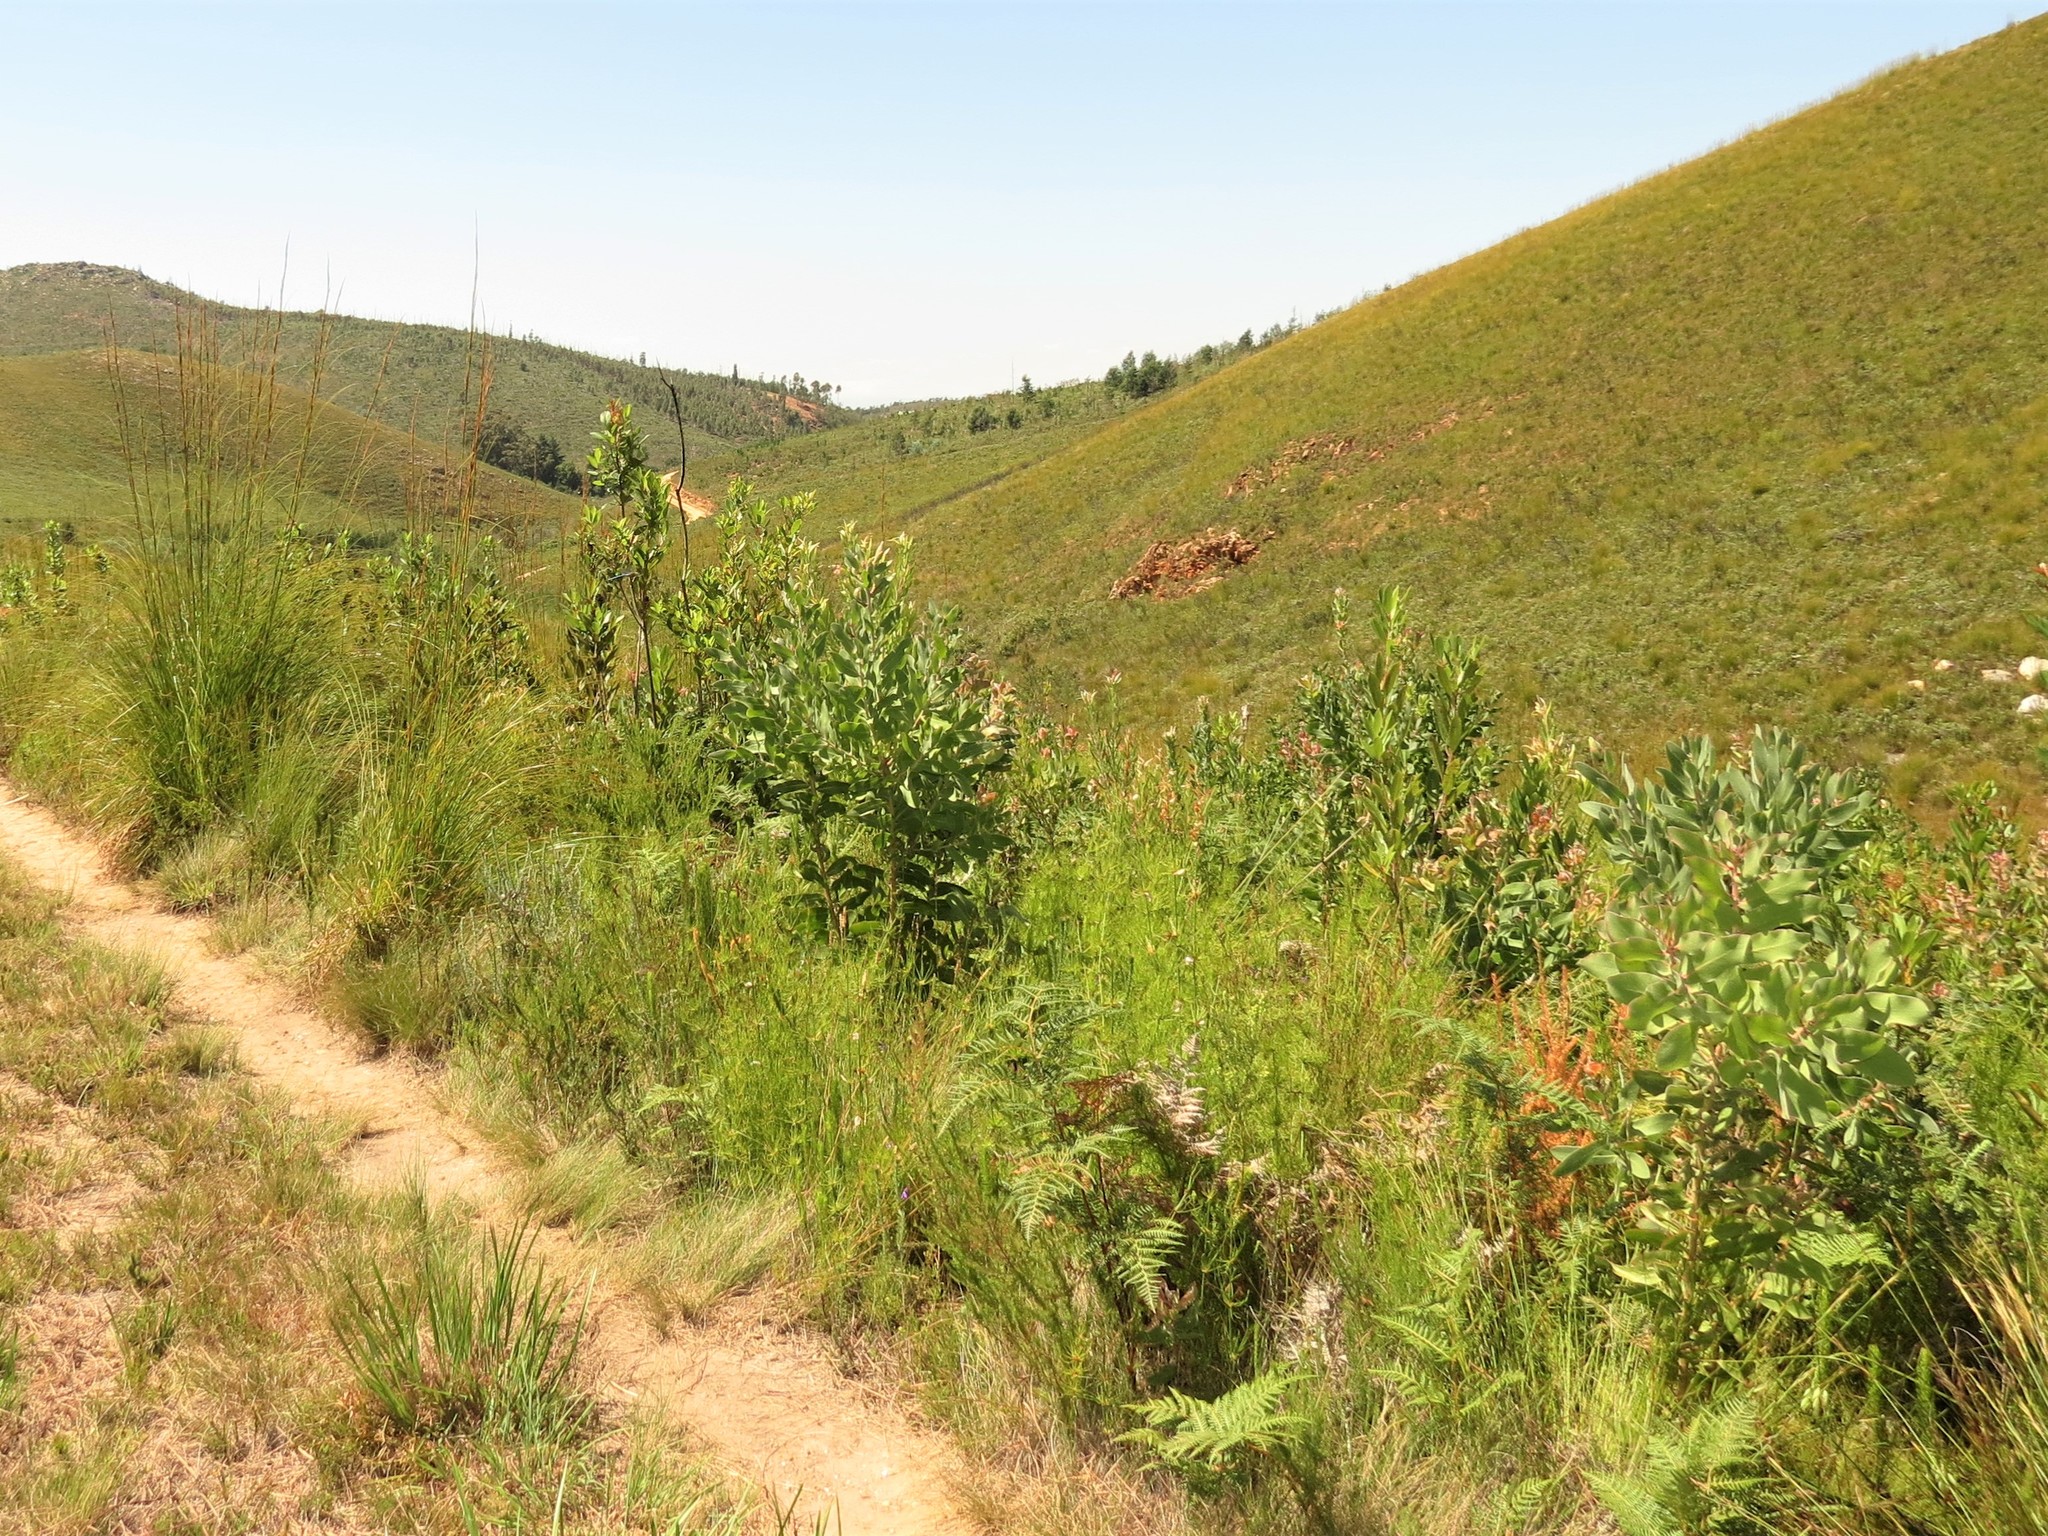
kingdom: Plantae
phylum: Tracheophyta
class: Polypodiopsida
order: Polypodiales
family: Dennstaedtiaceae
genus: Pteridium
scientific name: Pteridium aquilinum
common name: Bracken
